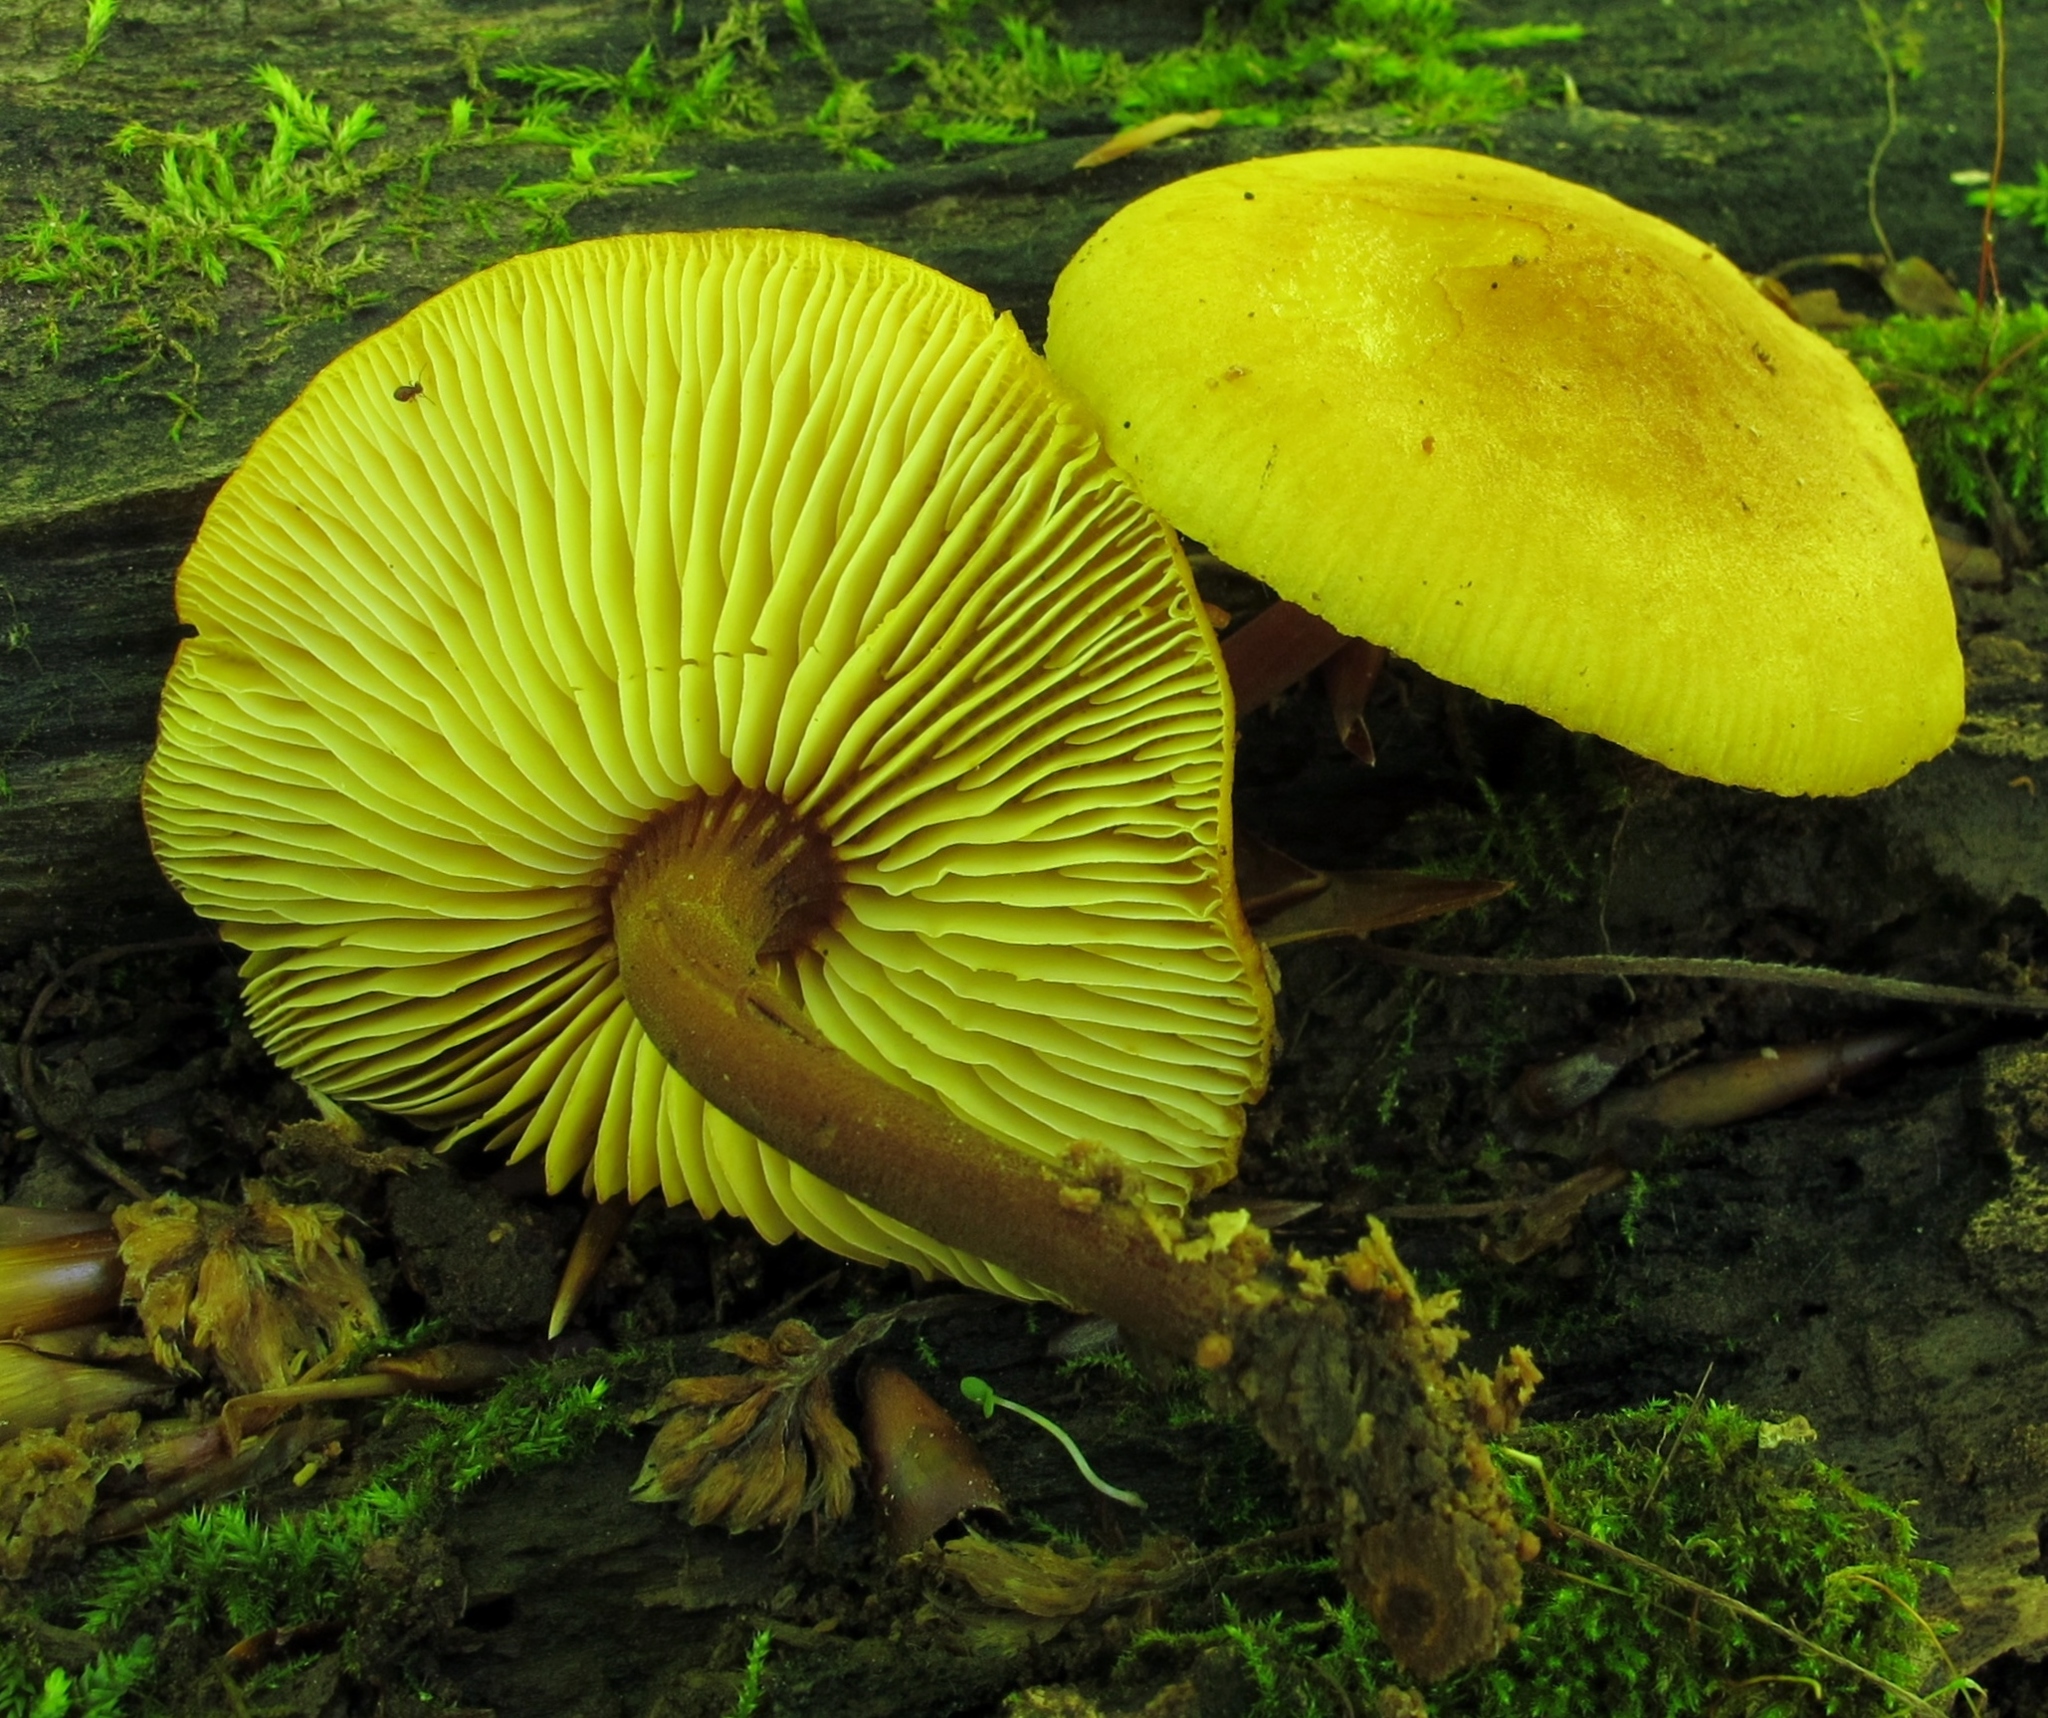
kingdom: Fungi
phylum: Basidiomycota
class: Agaricomycetes
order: Agaricales
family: Mycenaceae
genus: Xeromphalina
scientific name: Xeromphalina tenuipes
